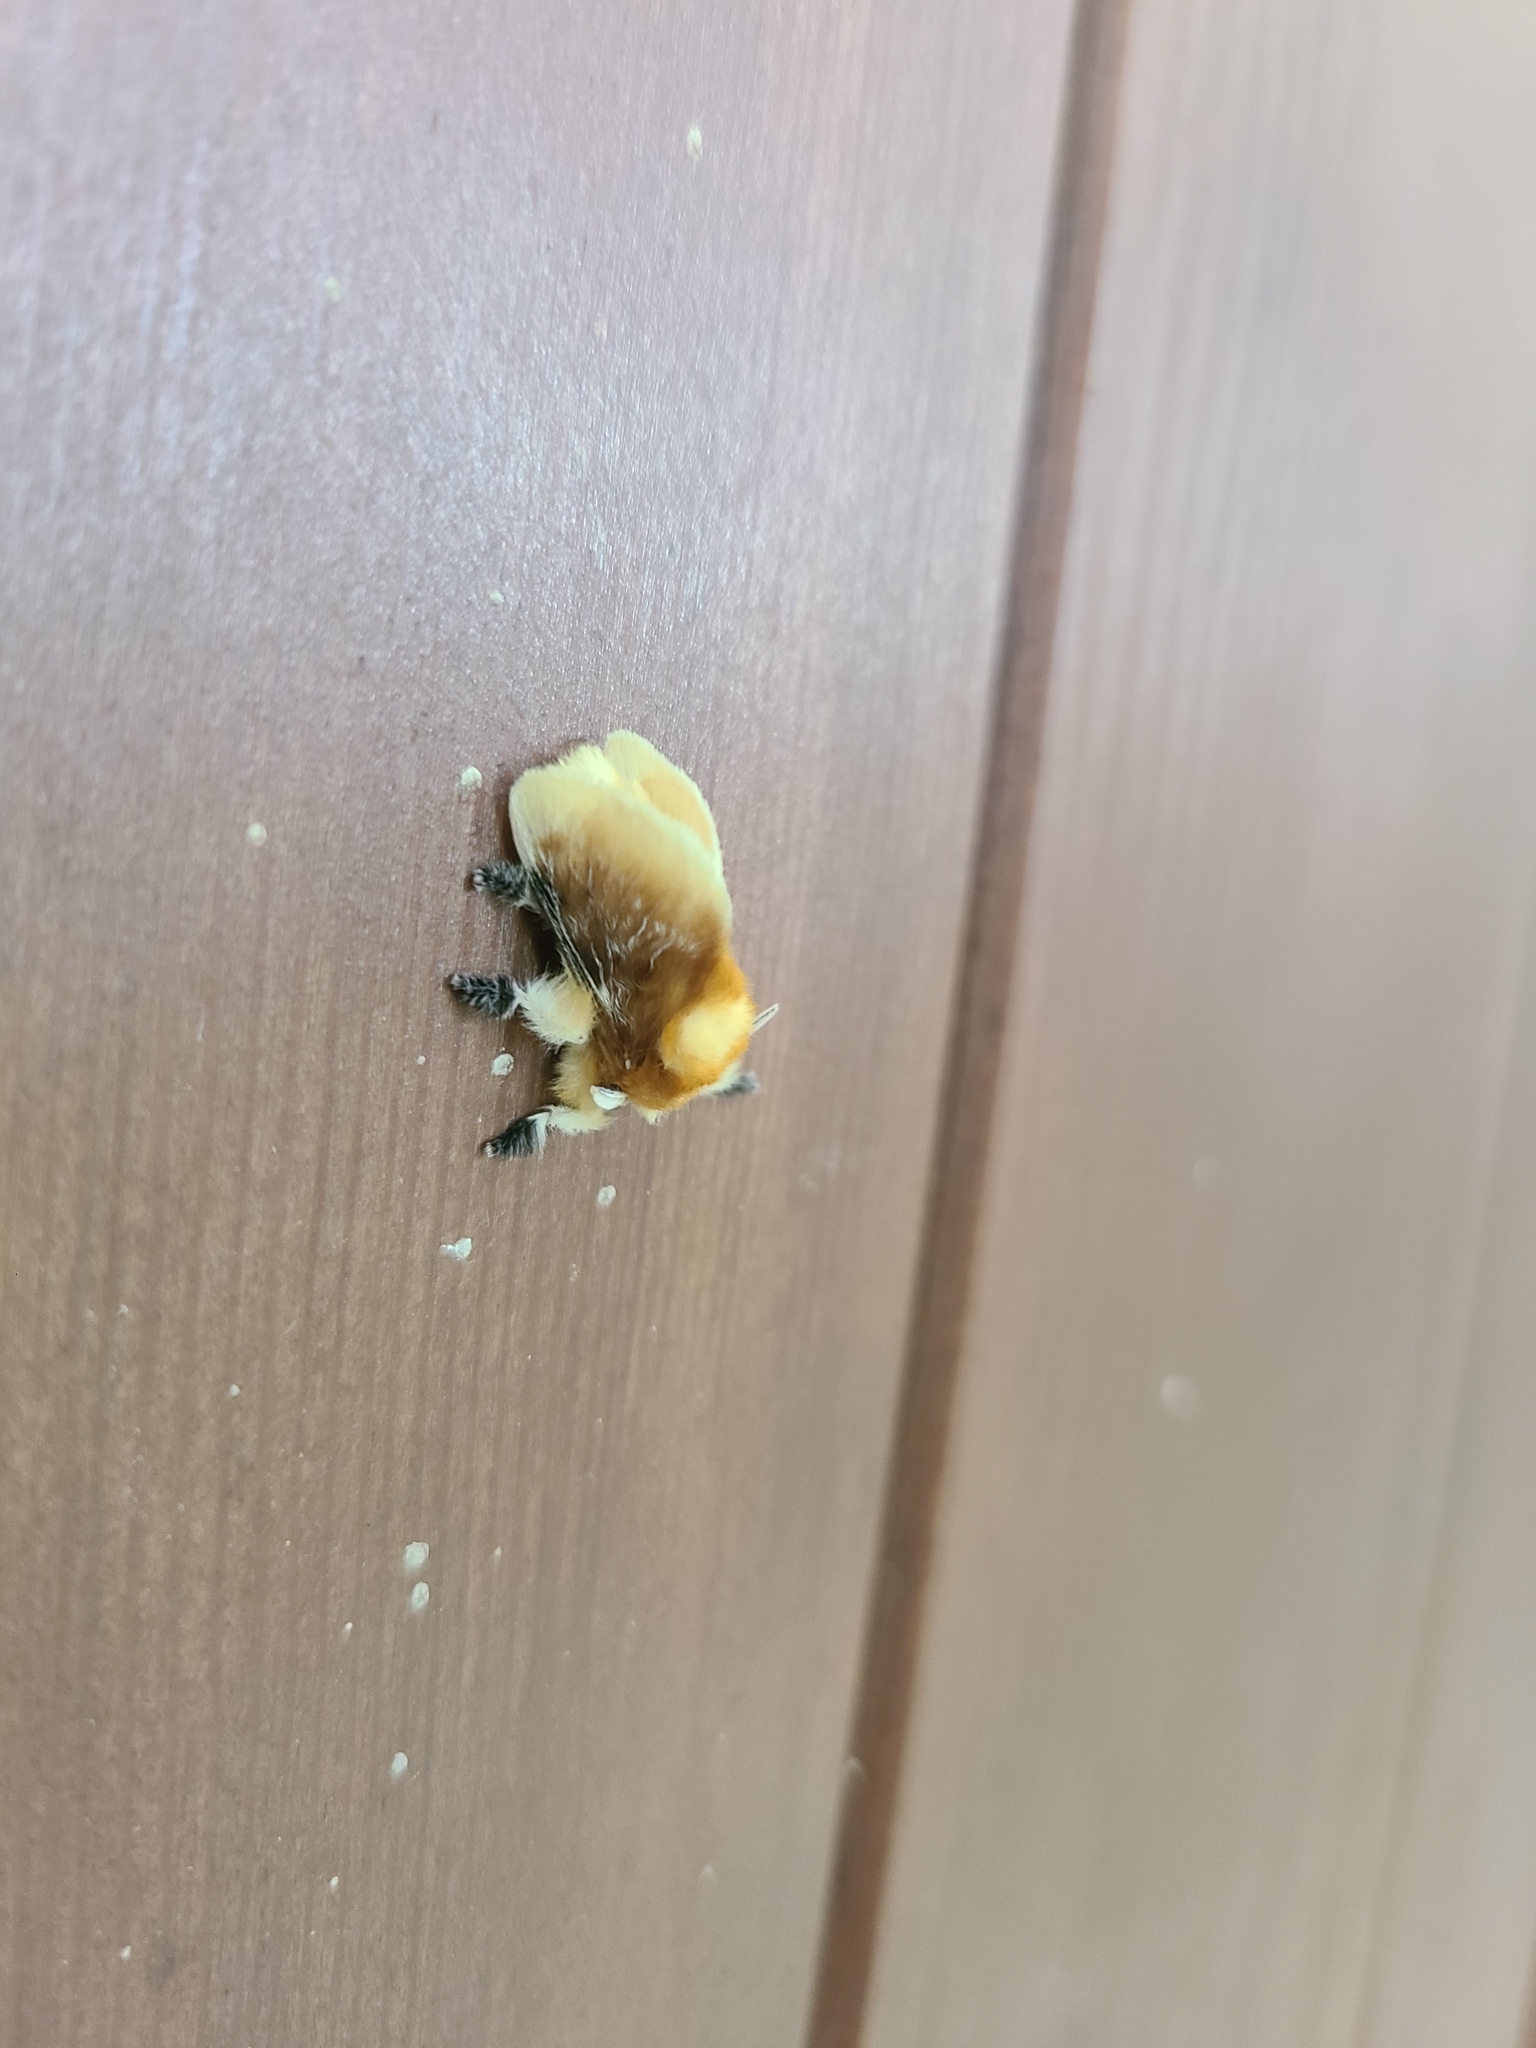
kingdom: Animalia
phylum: Arthropoda
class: Insecta
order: Lepidoptera
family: Megalopygidae
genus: Megalopyge
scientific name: Megalopyge opercularis
